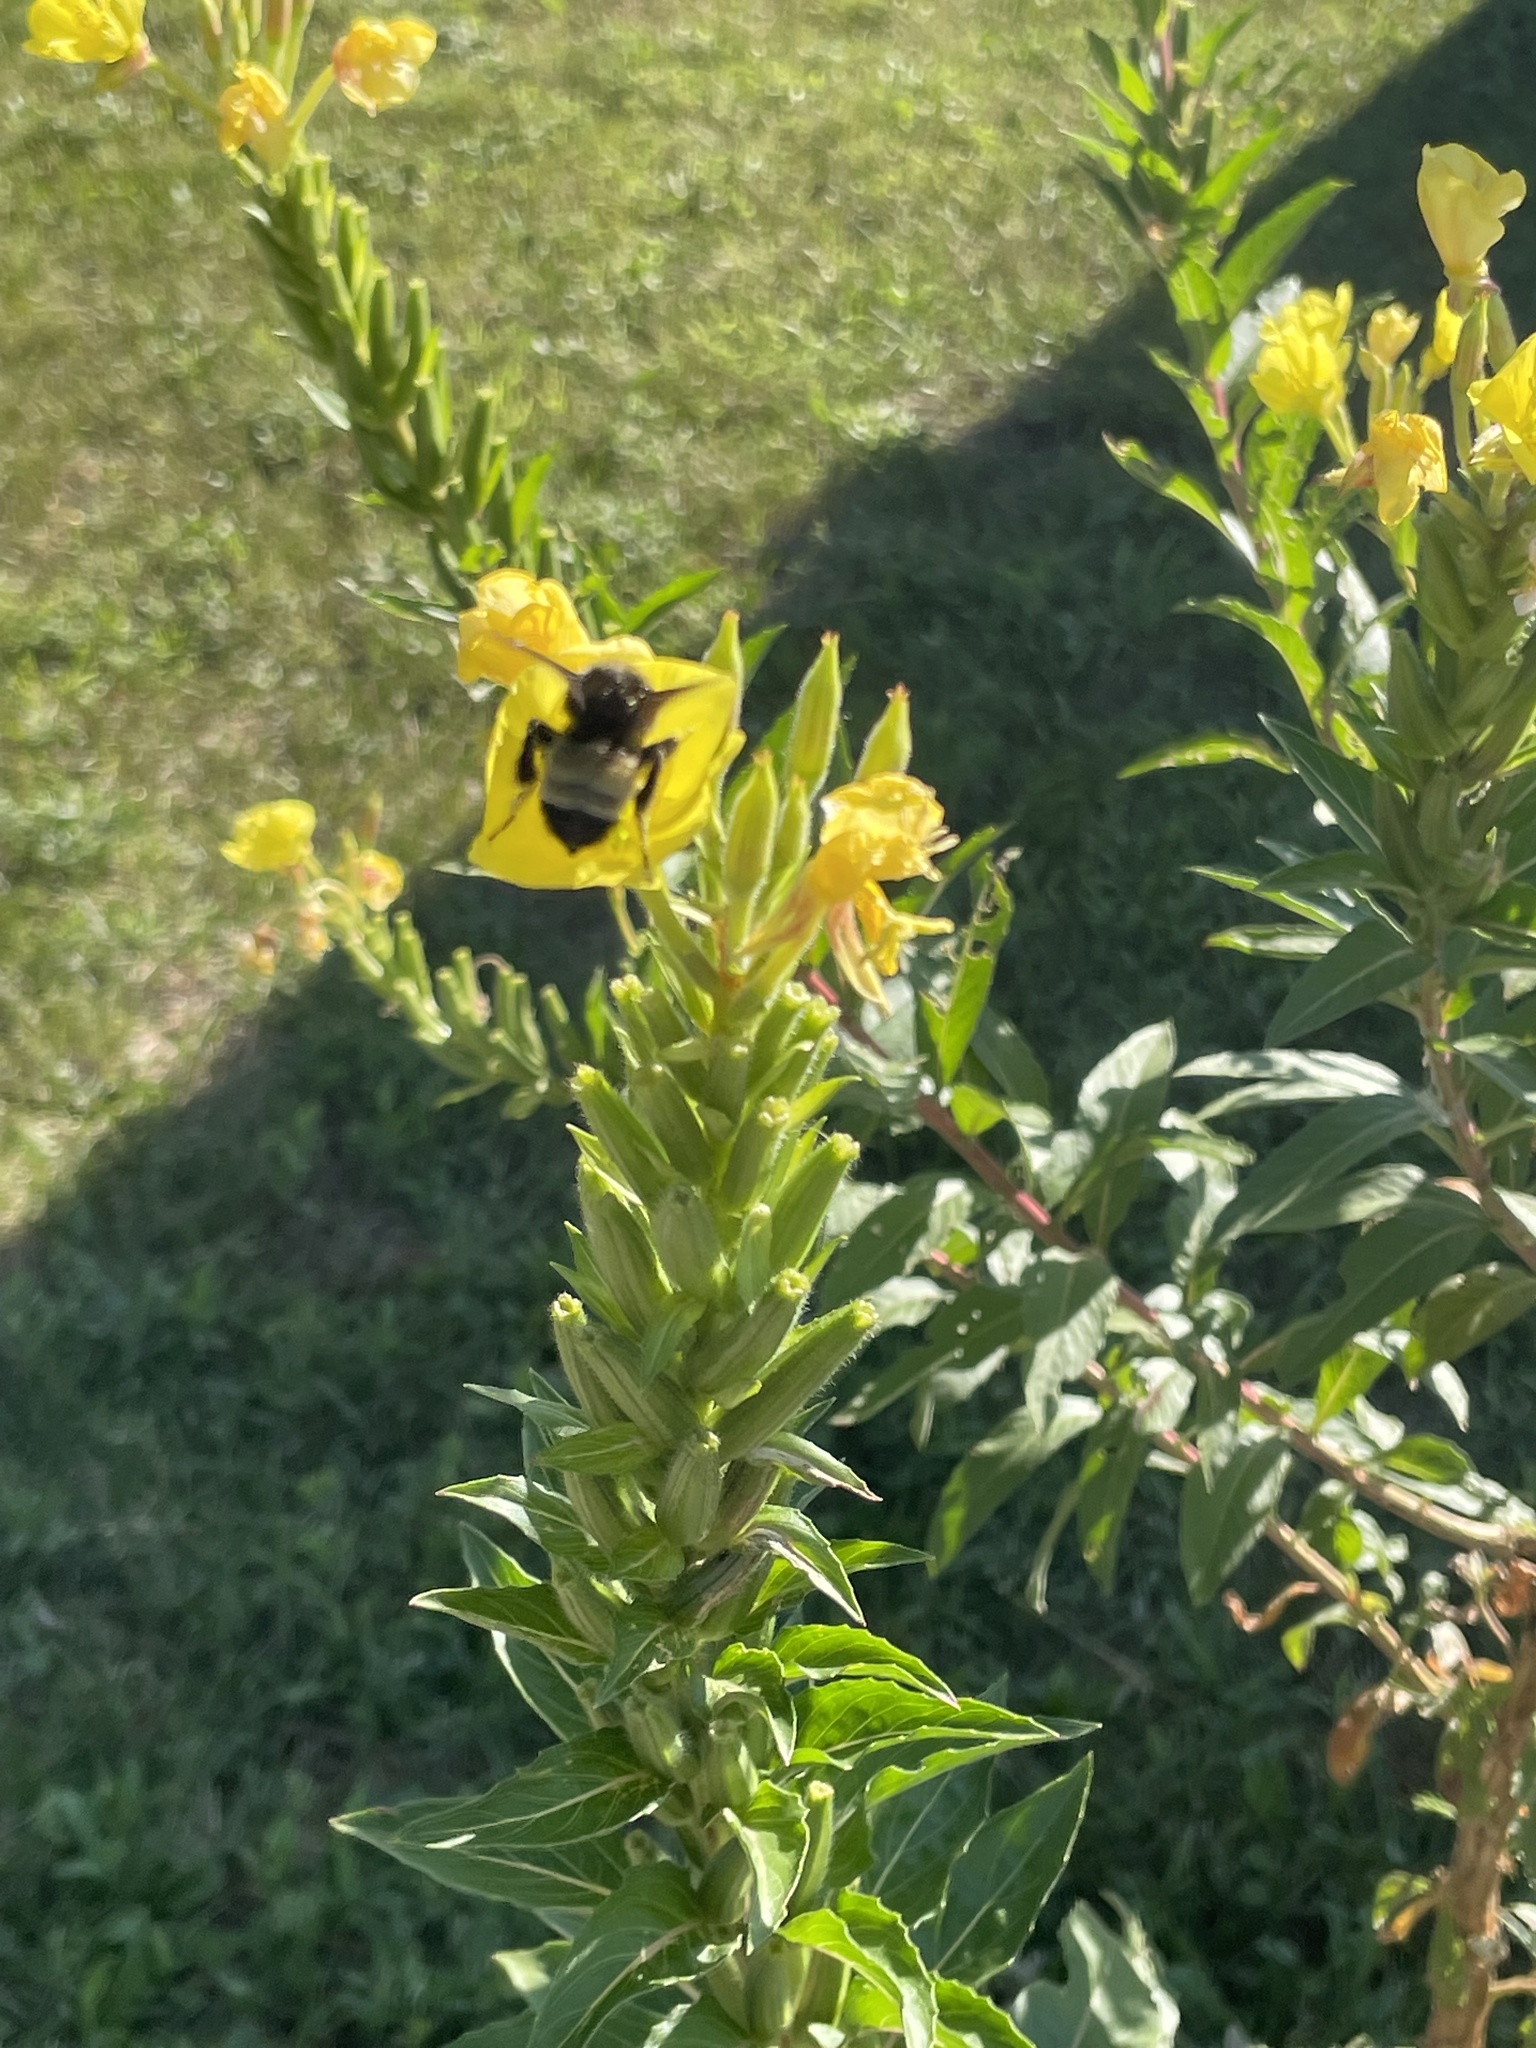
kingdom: Animalia
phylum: Arthropoda
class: Insecta
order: Hymenoptera
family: Apidae
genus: Bombus
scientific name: Bombus pensylvanicus
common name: Bumble bee
